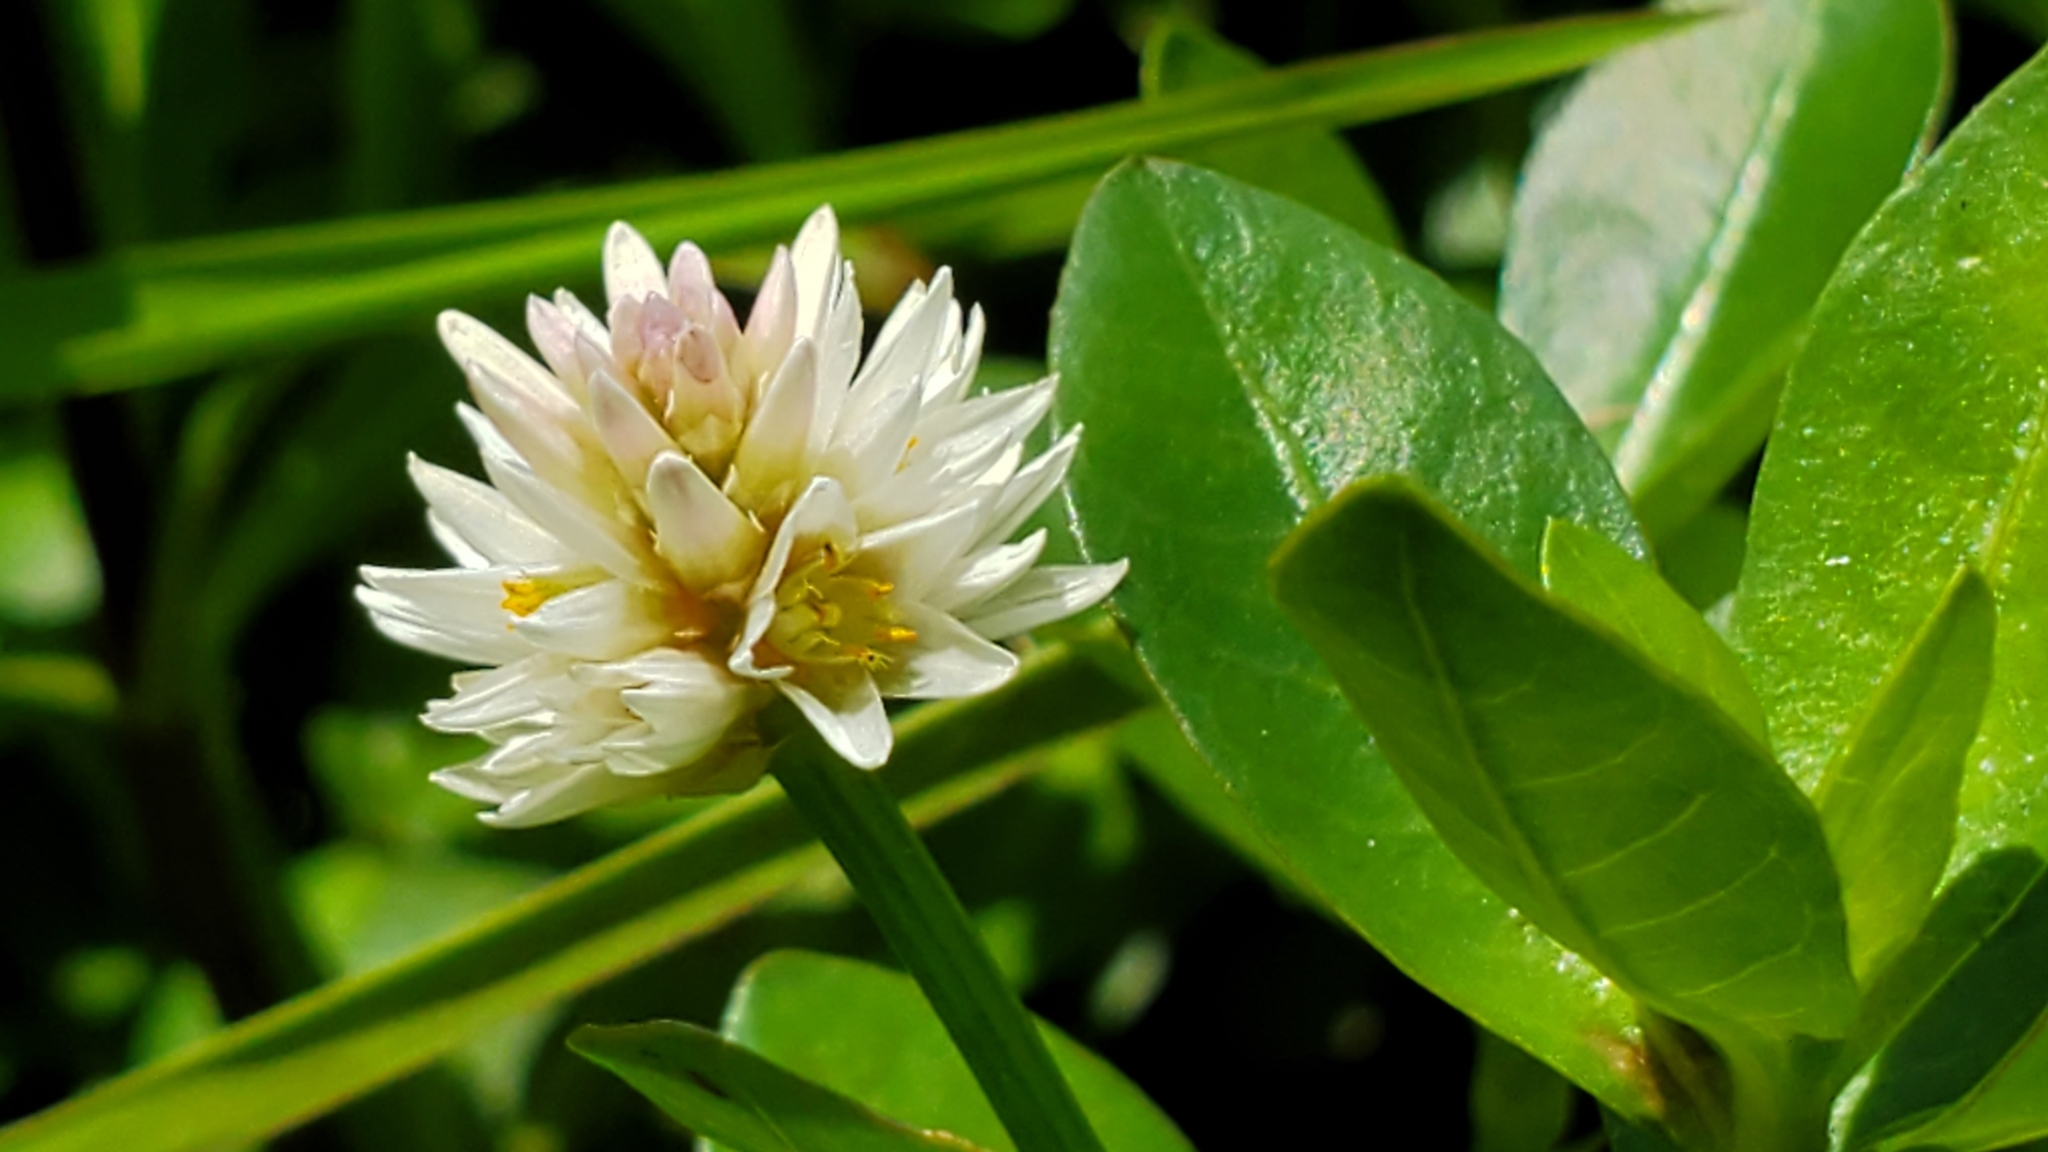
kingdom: Plantae
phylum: Tracheophyta
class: Magnoliopsida
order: Caryophyllales
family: Amaranthaceae
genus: Alternanthera
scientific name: Alternanthera philoxeroides
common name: Alligatorweed
